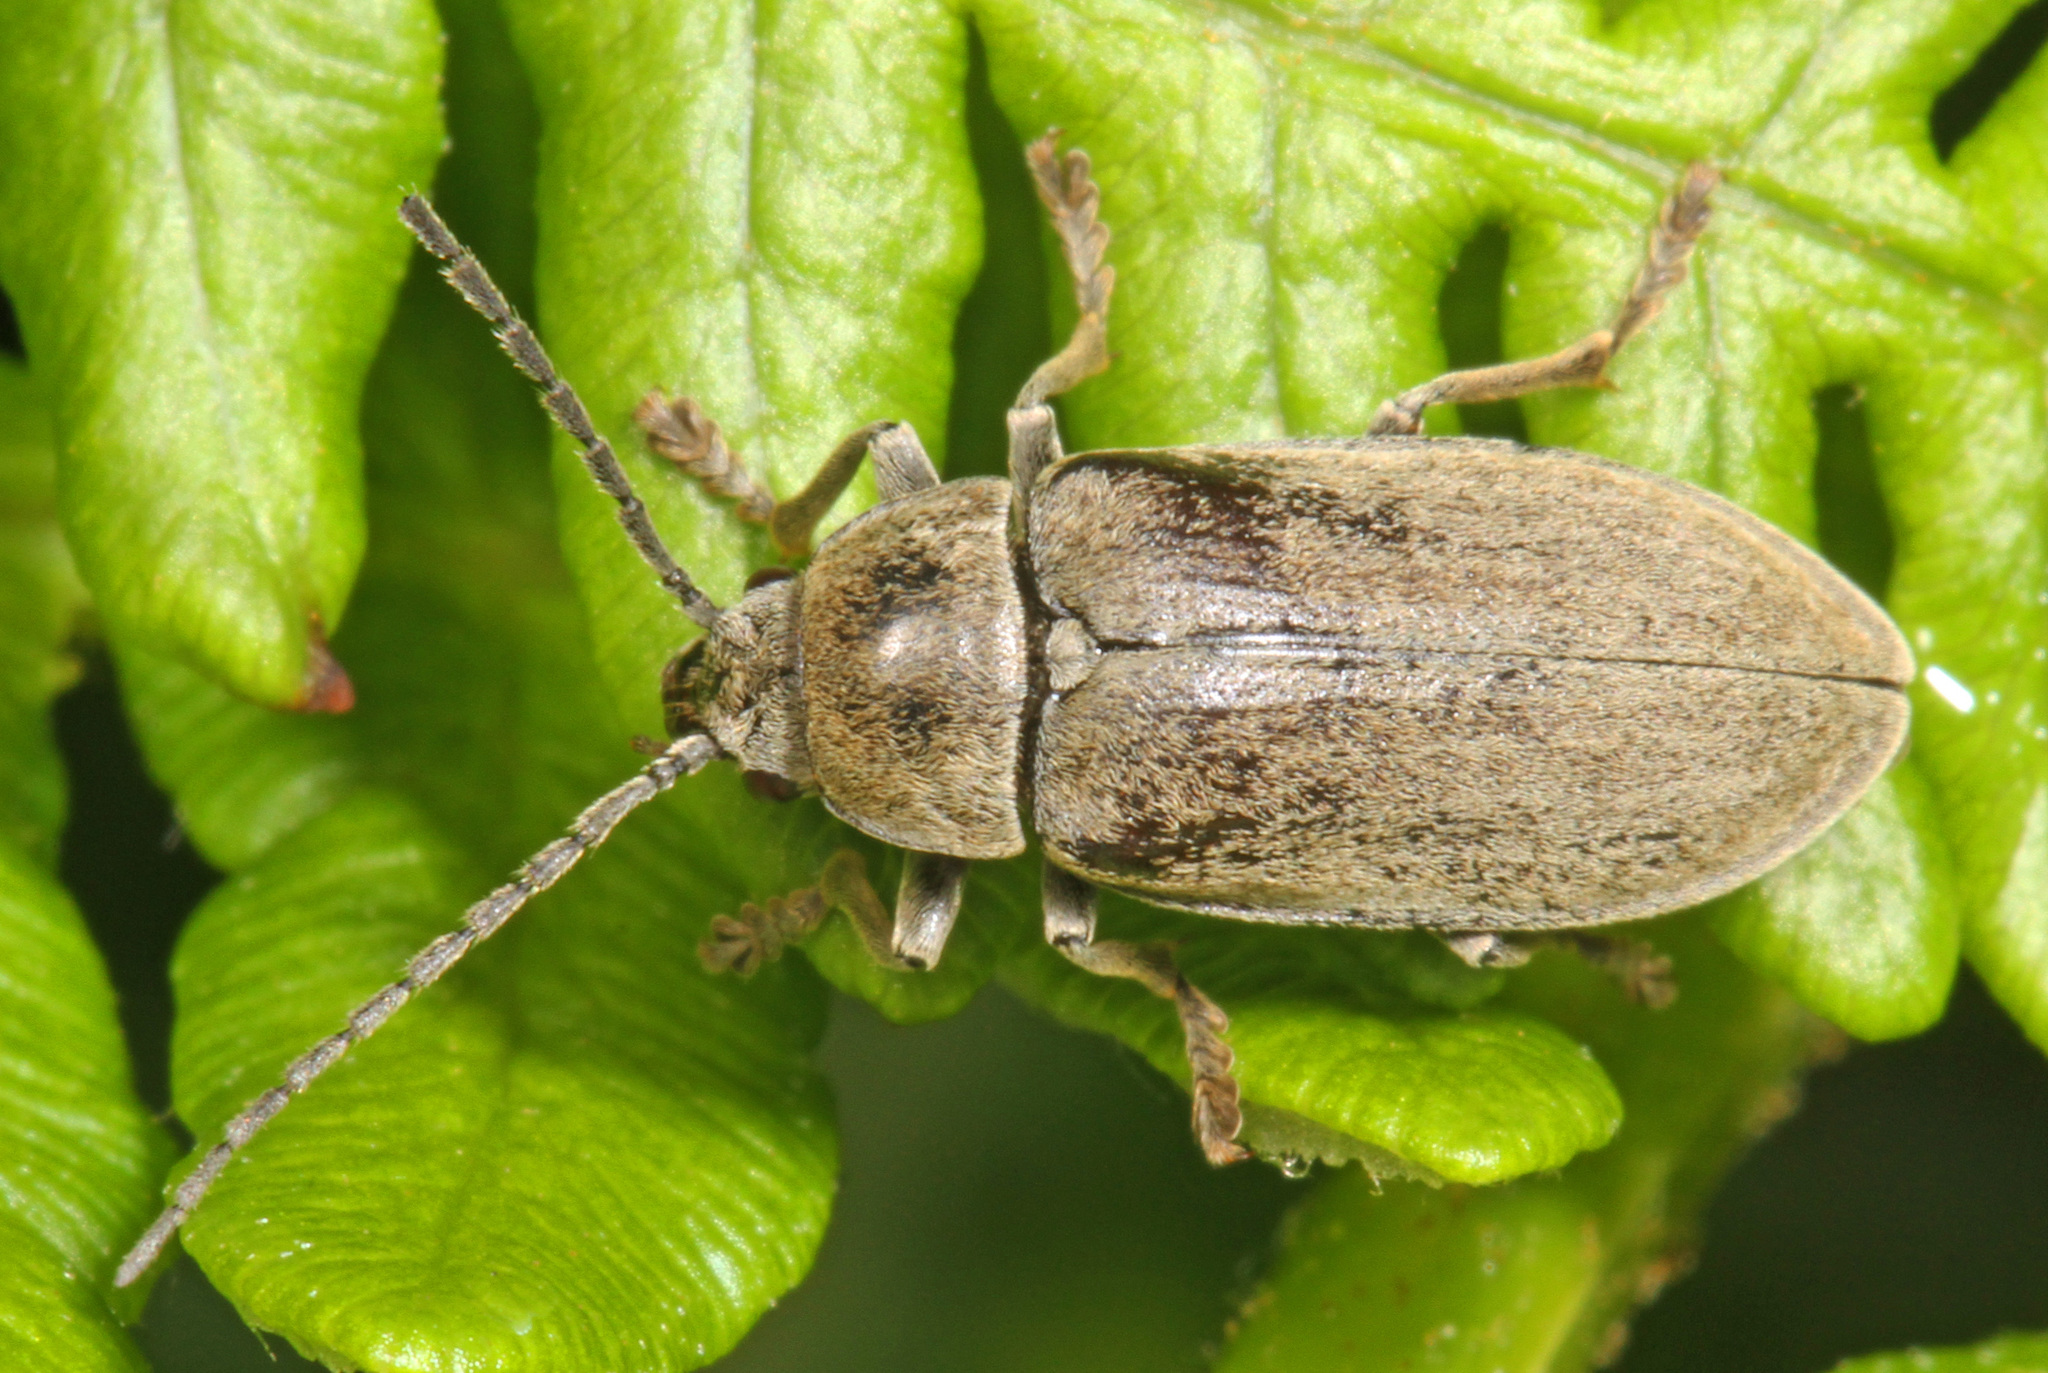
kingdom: Animalia
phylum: Arthropoda
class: Insecta
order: Coleoptera
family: Dascillidae
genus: Dascillus
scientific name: Dascillus cervinus
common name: Orchid beetle
